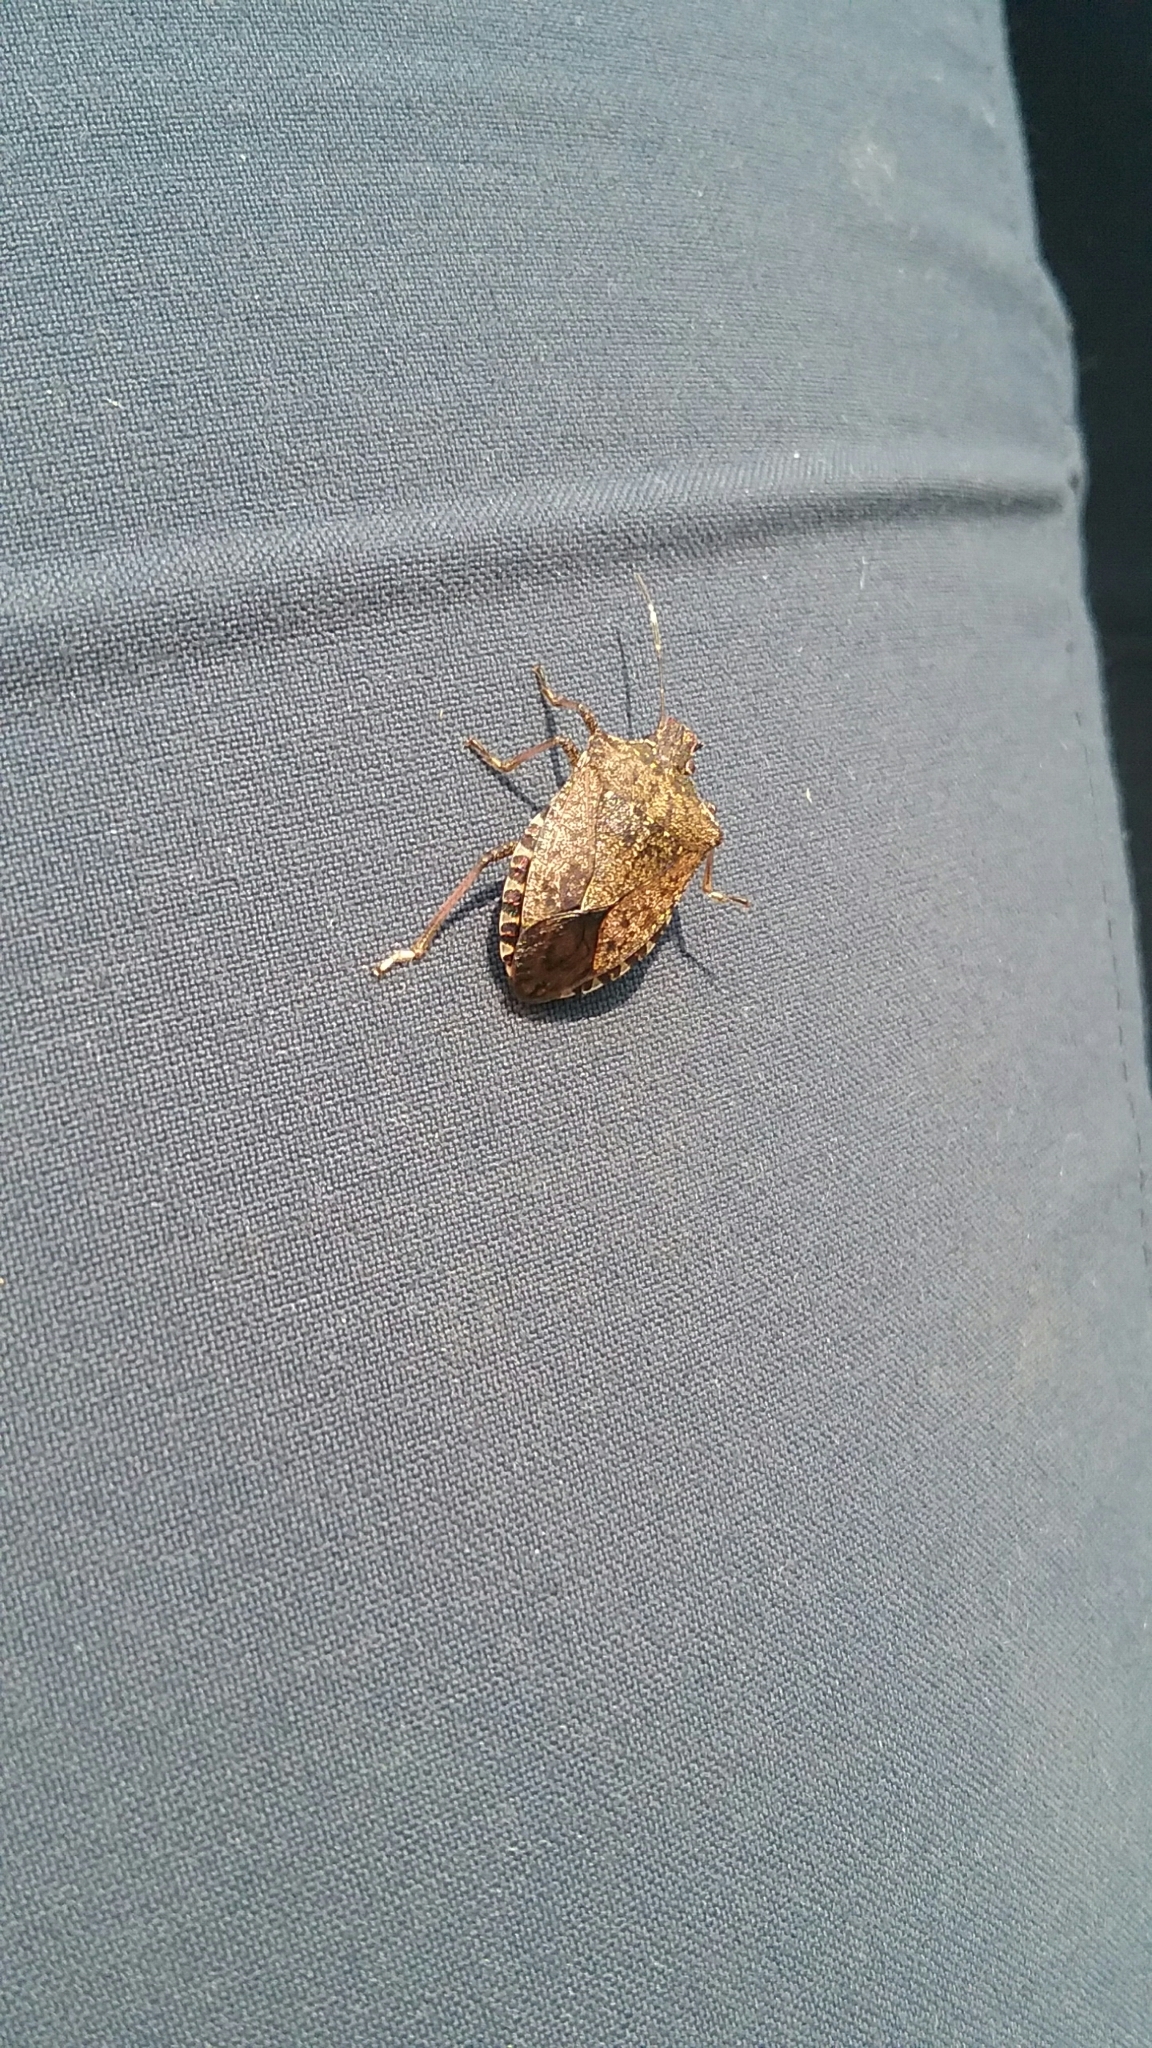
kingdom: Animalia
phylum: Arthropoda
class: Insecta
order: Hemiptera
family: Pentatomidae
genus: Halyomorpha
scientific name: Halyomorpha halys
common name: Brown marmorated stink bug
